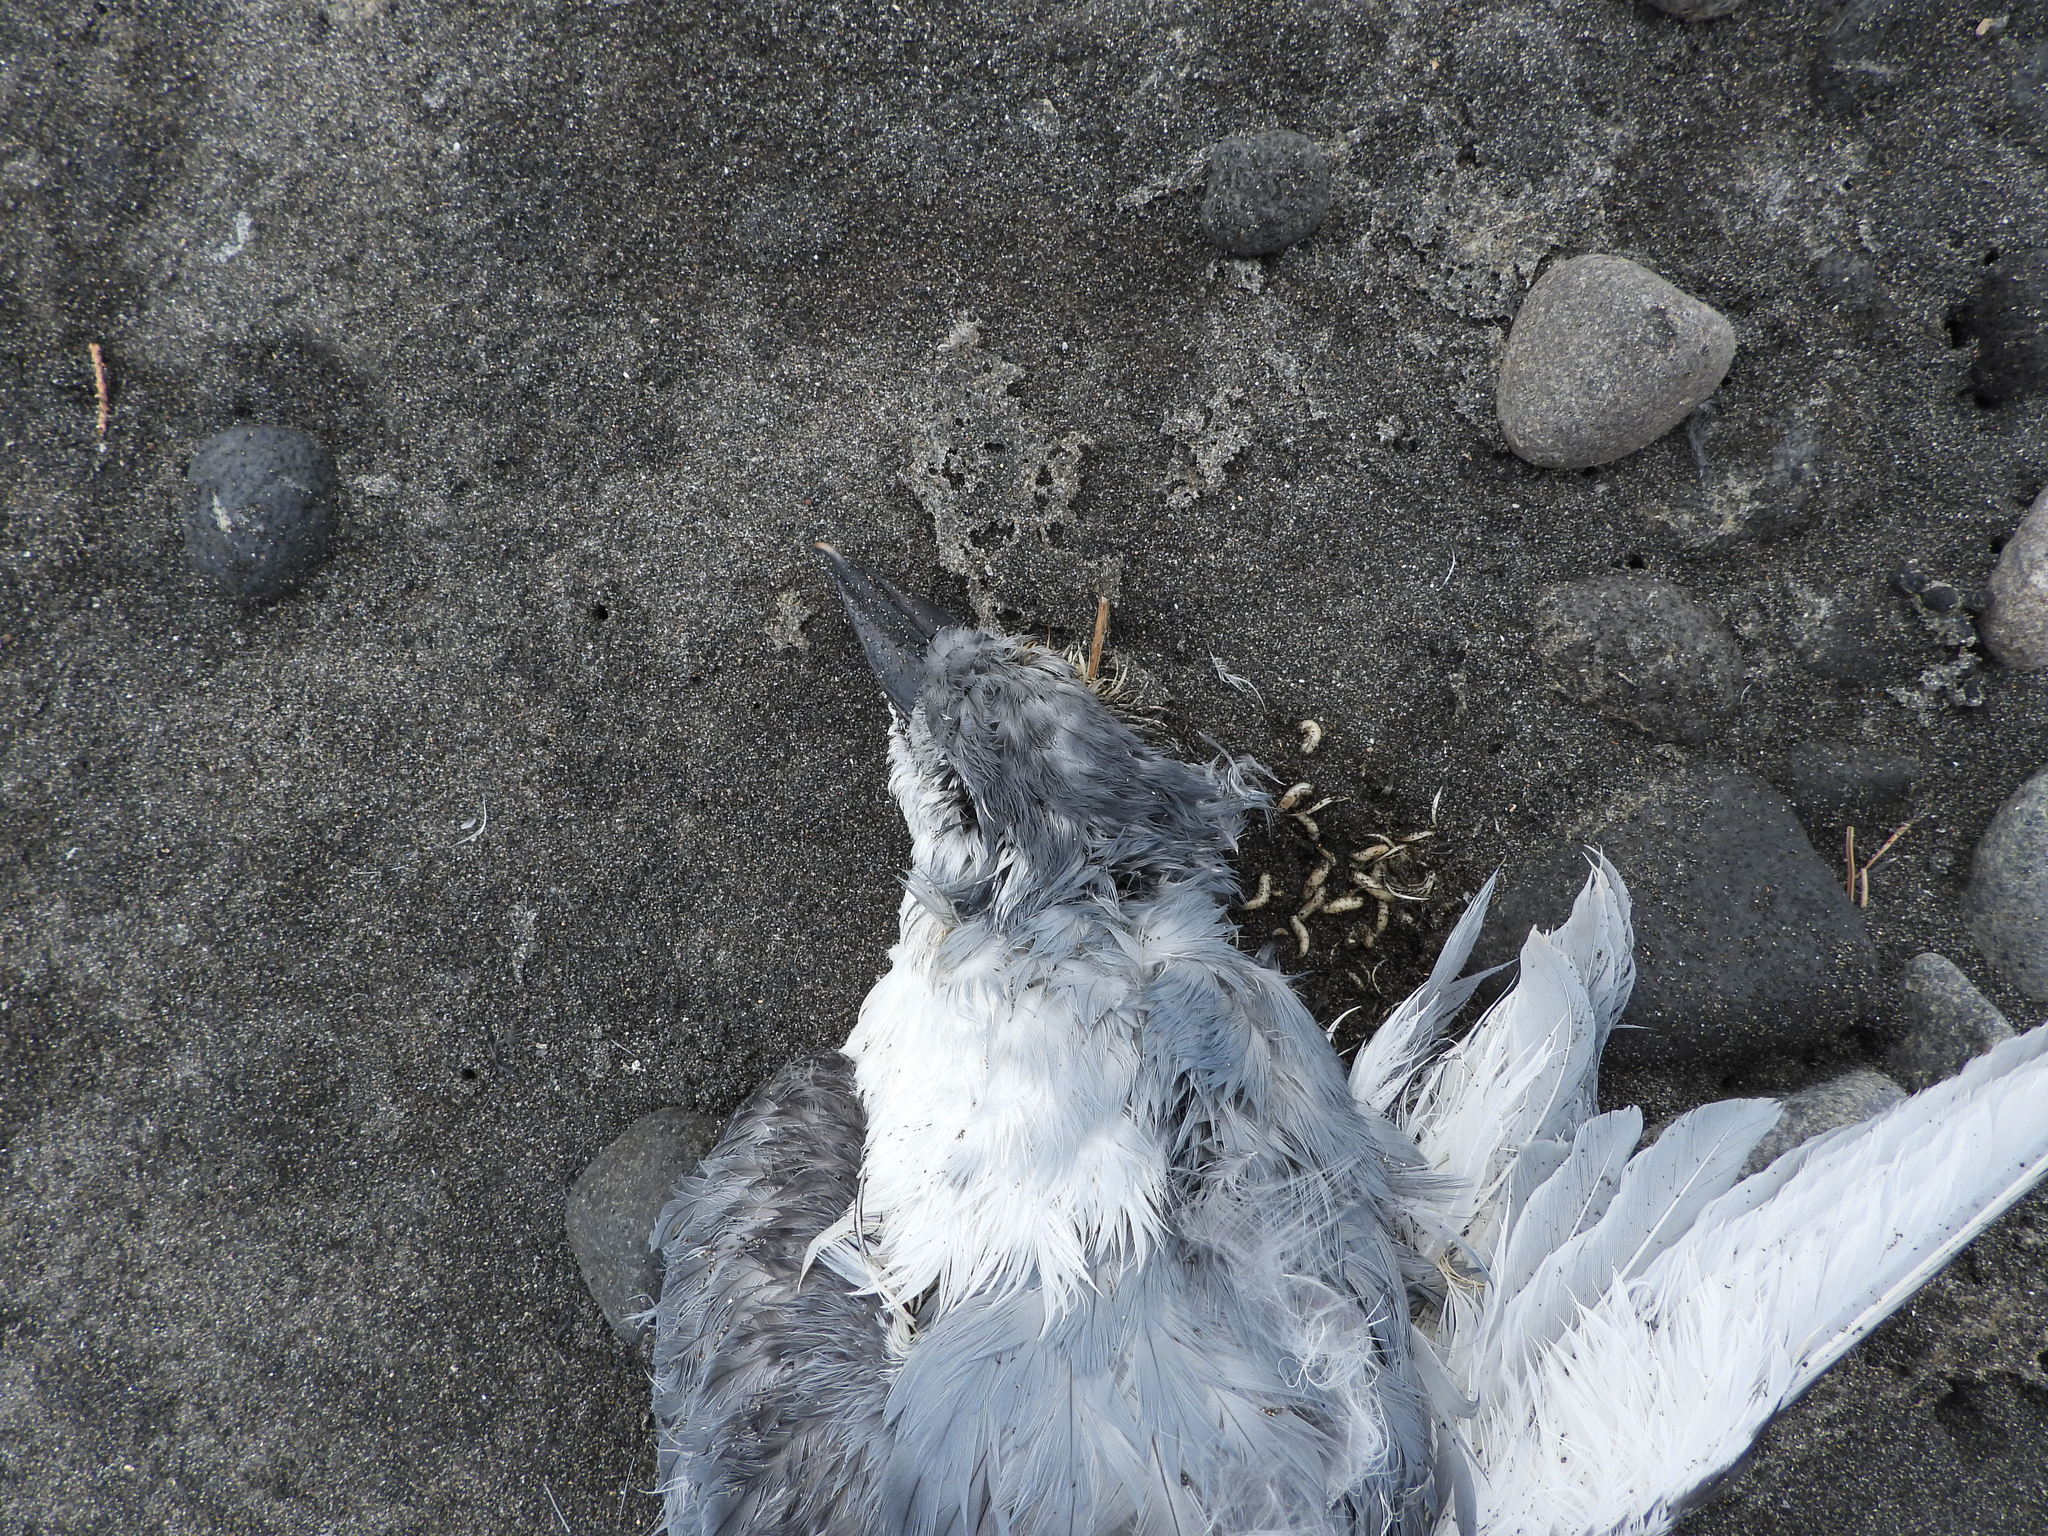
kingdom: Animalia
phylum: Chordata
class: Aves
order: Procellariiformes
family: Procellariidae
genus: Pachyptila
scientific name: Pachyptila vittata
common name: Broad-billed prion
